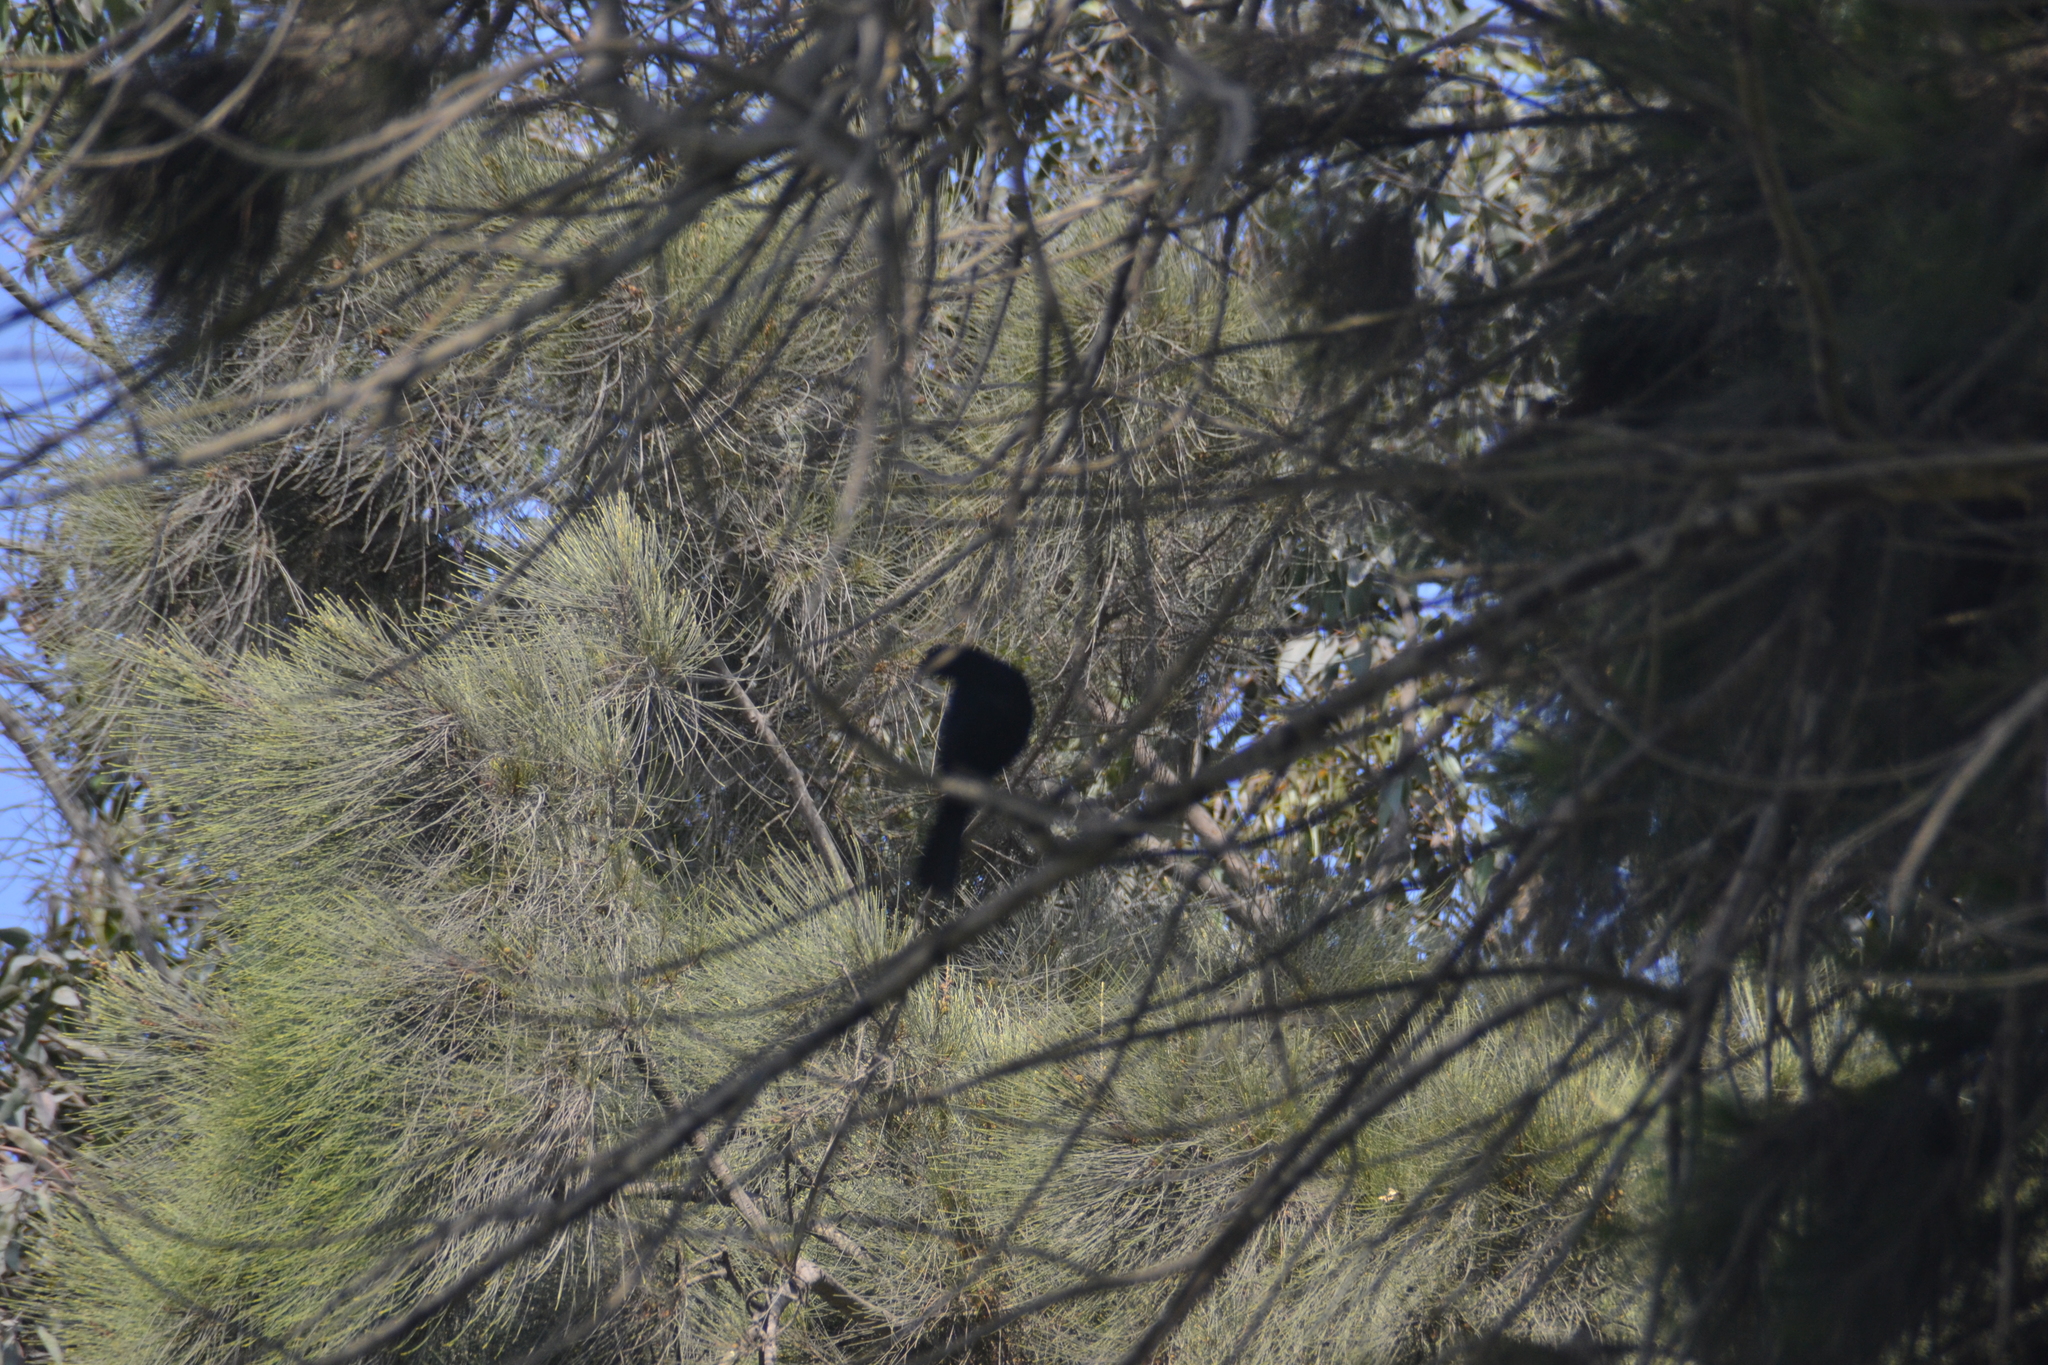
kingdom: Animalia
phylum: Chordata
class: Aves
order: Passeriformes
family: Icteridae
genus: Molothrus
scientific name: Molothrus bonariensis
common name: Shiny cowbird
